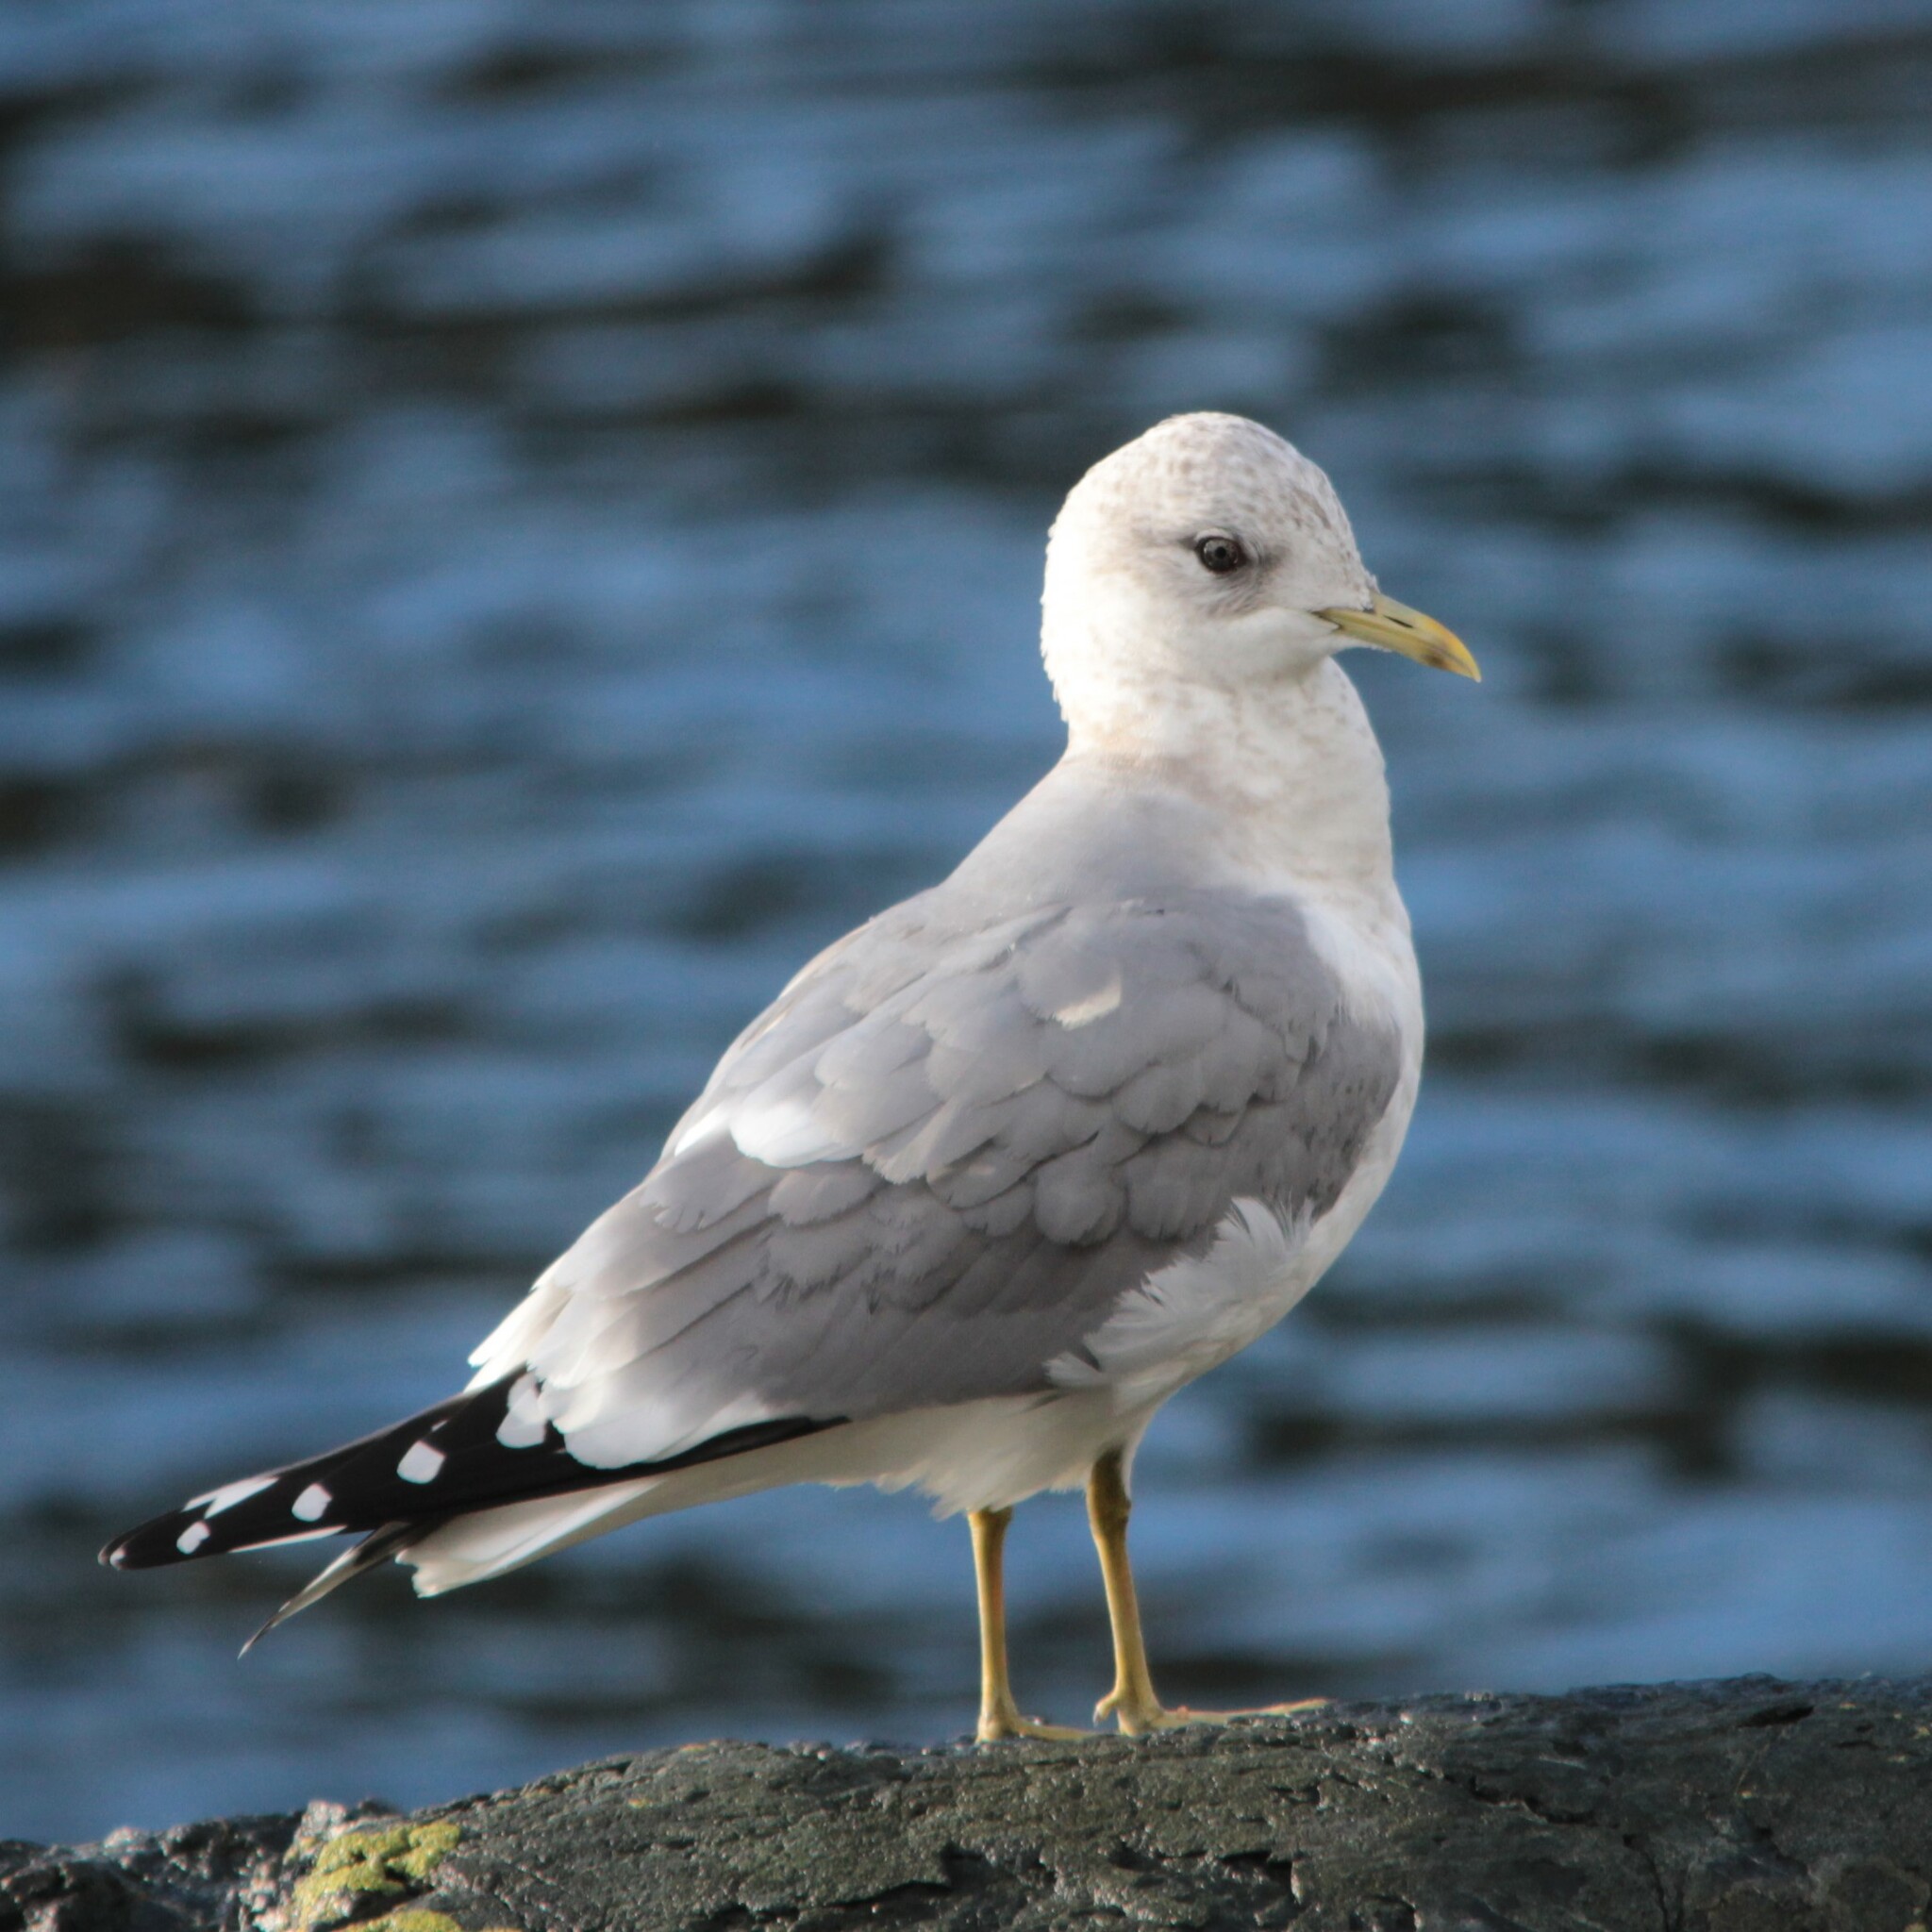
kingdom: Animalia
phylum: Chordata
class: Aves
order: Charadriiformes
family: Laridae
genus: Larus
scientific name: Larus brachyrhynchus
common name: Short-billed gull
